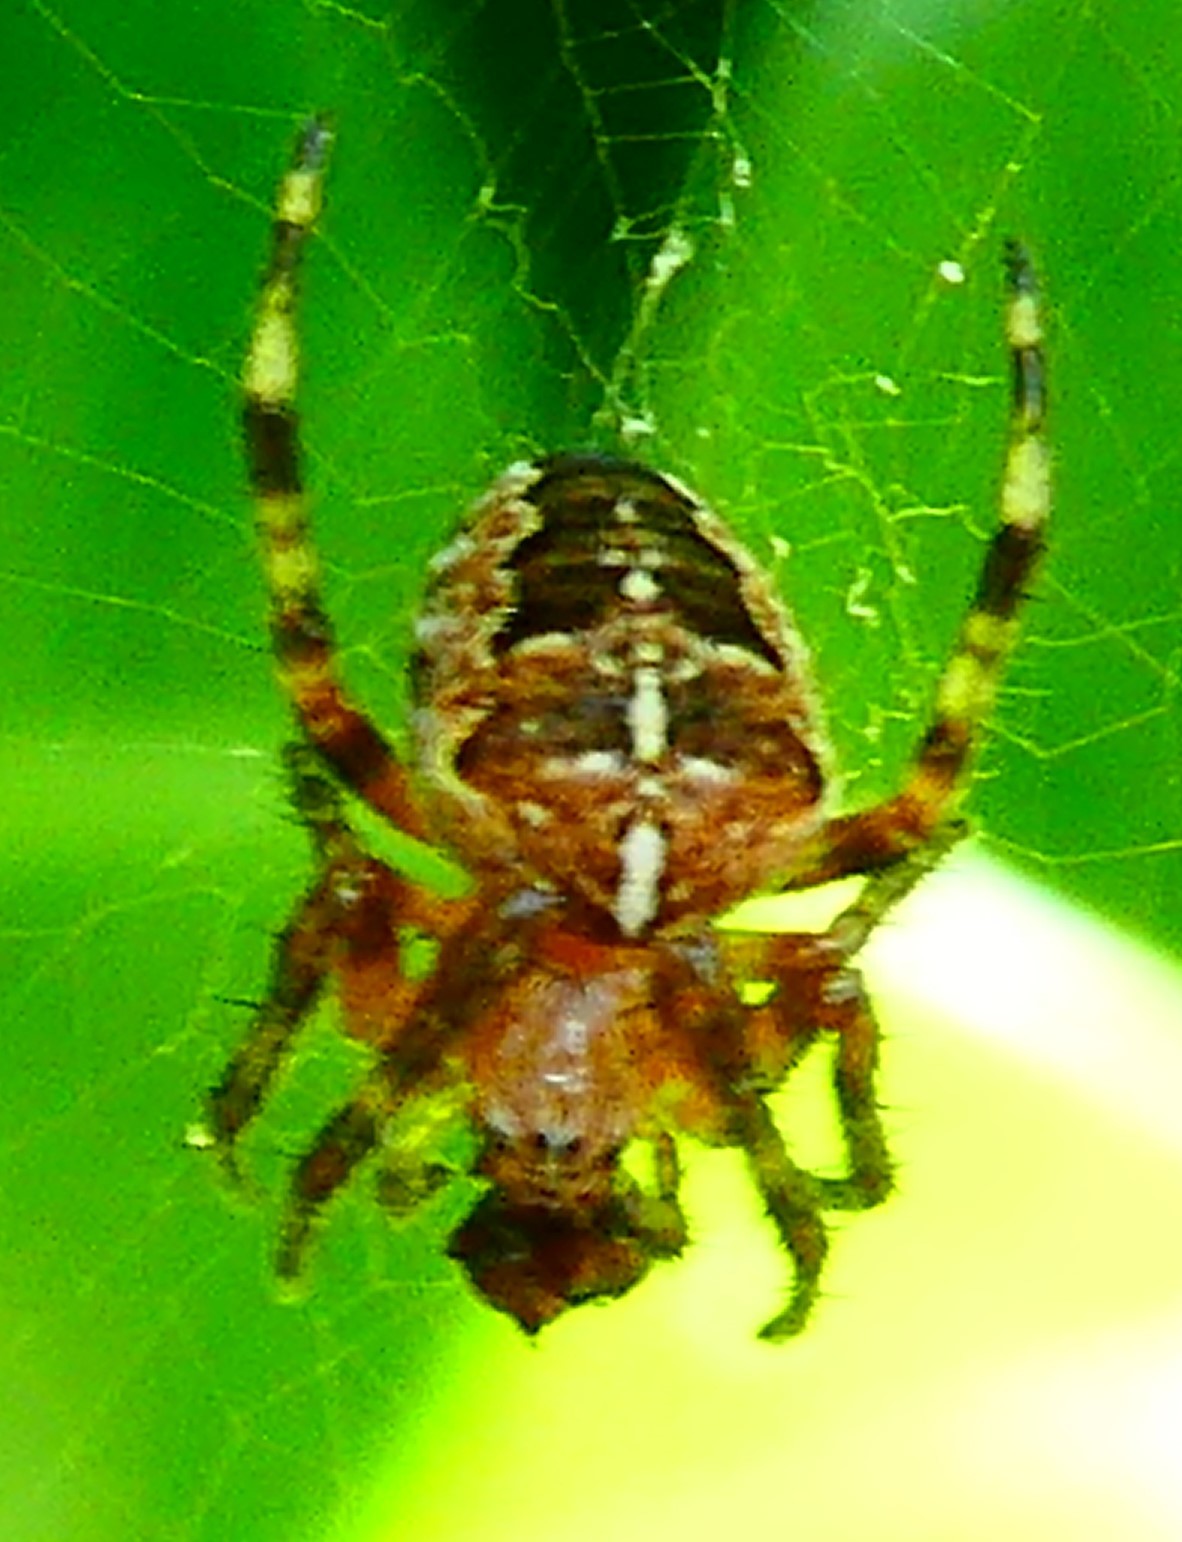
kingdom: Animalia
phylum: Arthropoda
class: Arachnida
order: Araneae
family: Araneidae
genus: Araneus
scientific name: Araneus diadematus
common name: Cross orbweaver
